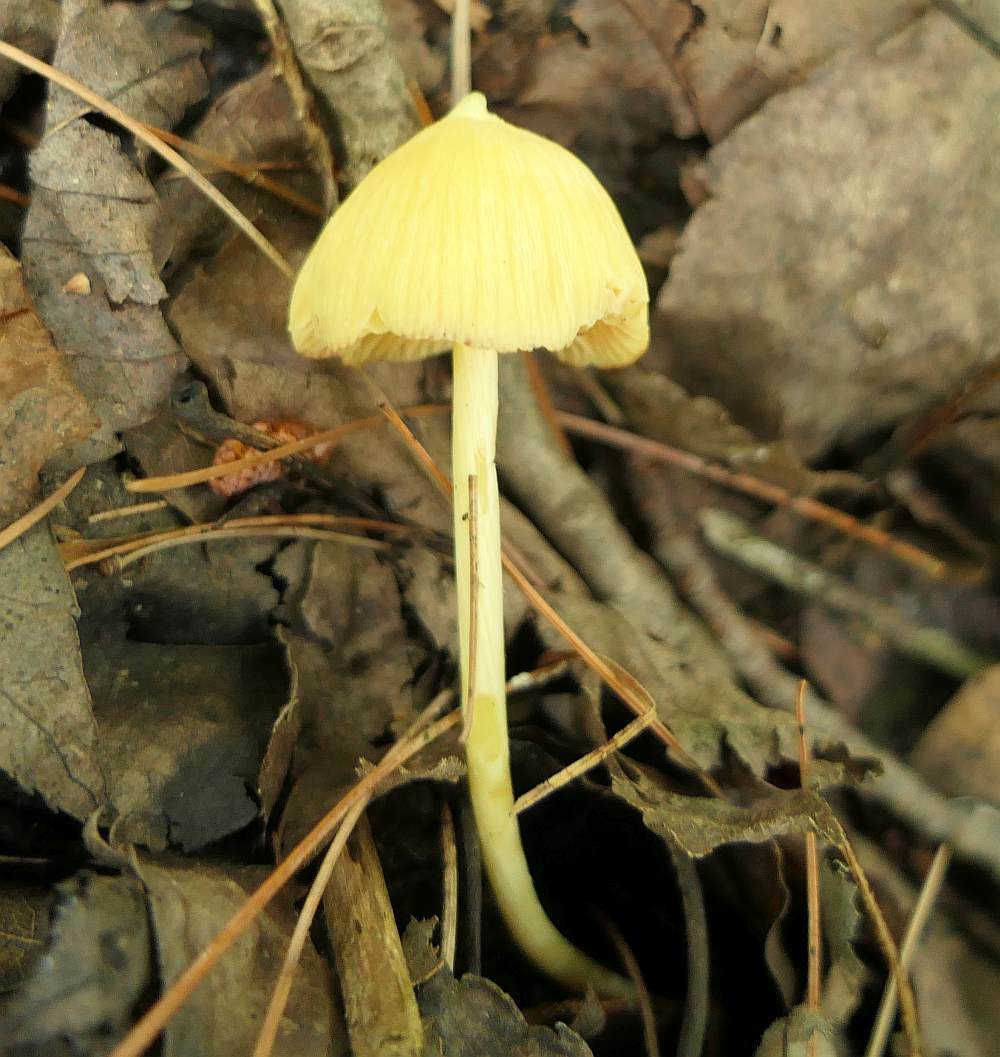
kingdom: Fungi
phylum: Basidiomycota
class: Agaricomycetes
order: Agaricales
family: Entolomataceae
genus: Entoloma
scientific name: Entoloma murrayi
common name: Yellow unicorn entoloma
